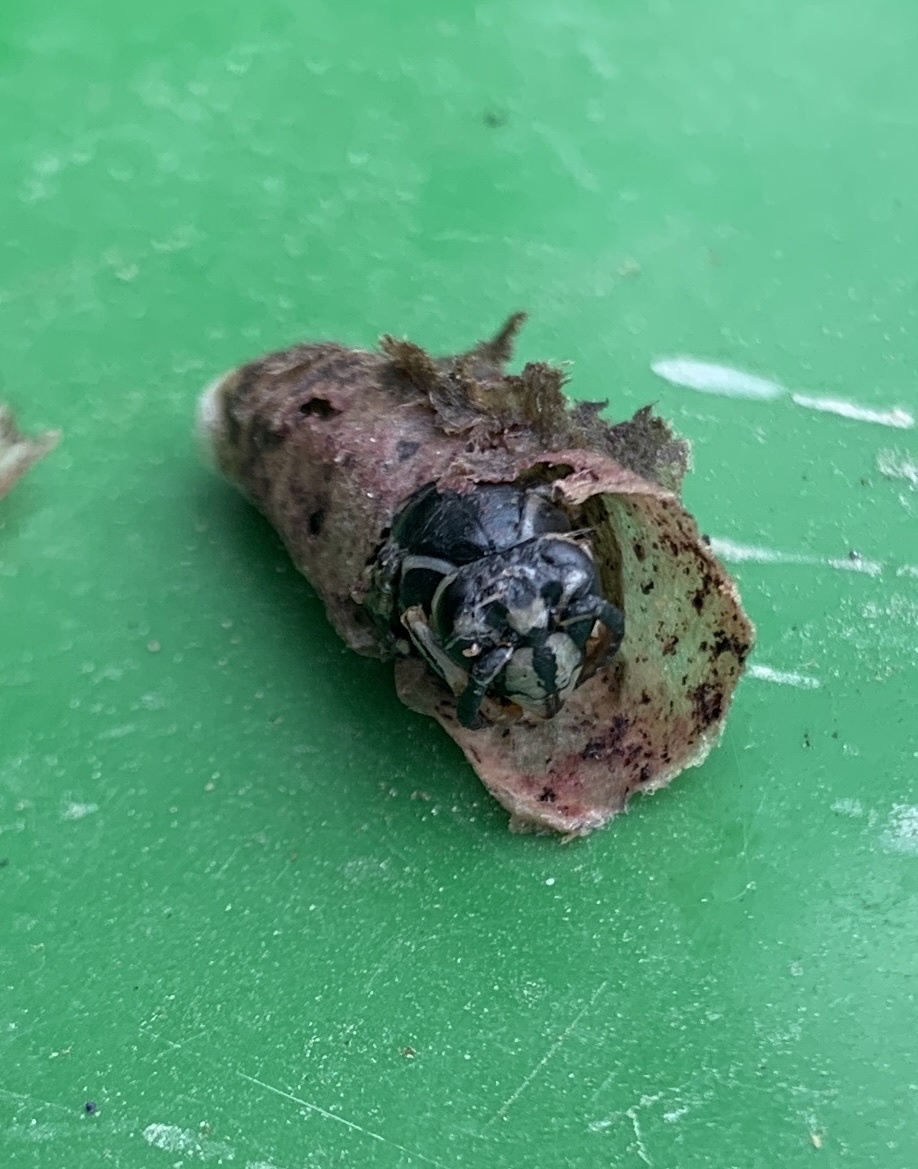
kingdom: Animalia
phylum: Arthropoda
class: Insecta
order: Hymenoptera
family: Vespidae
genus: Dolichovespula
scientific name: Dolichovespula maculata
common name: Bald-faced hornet
